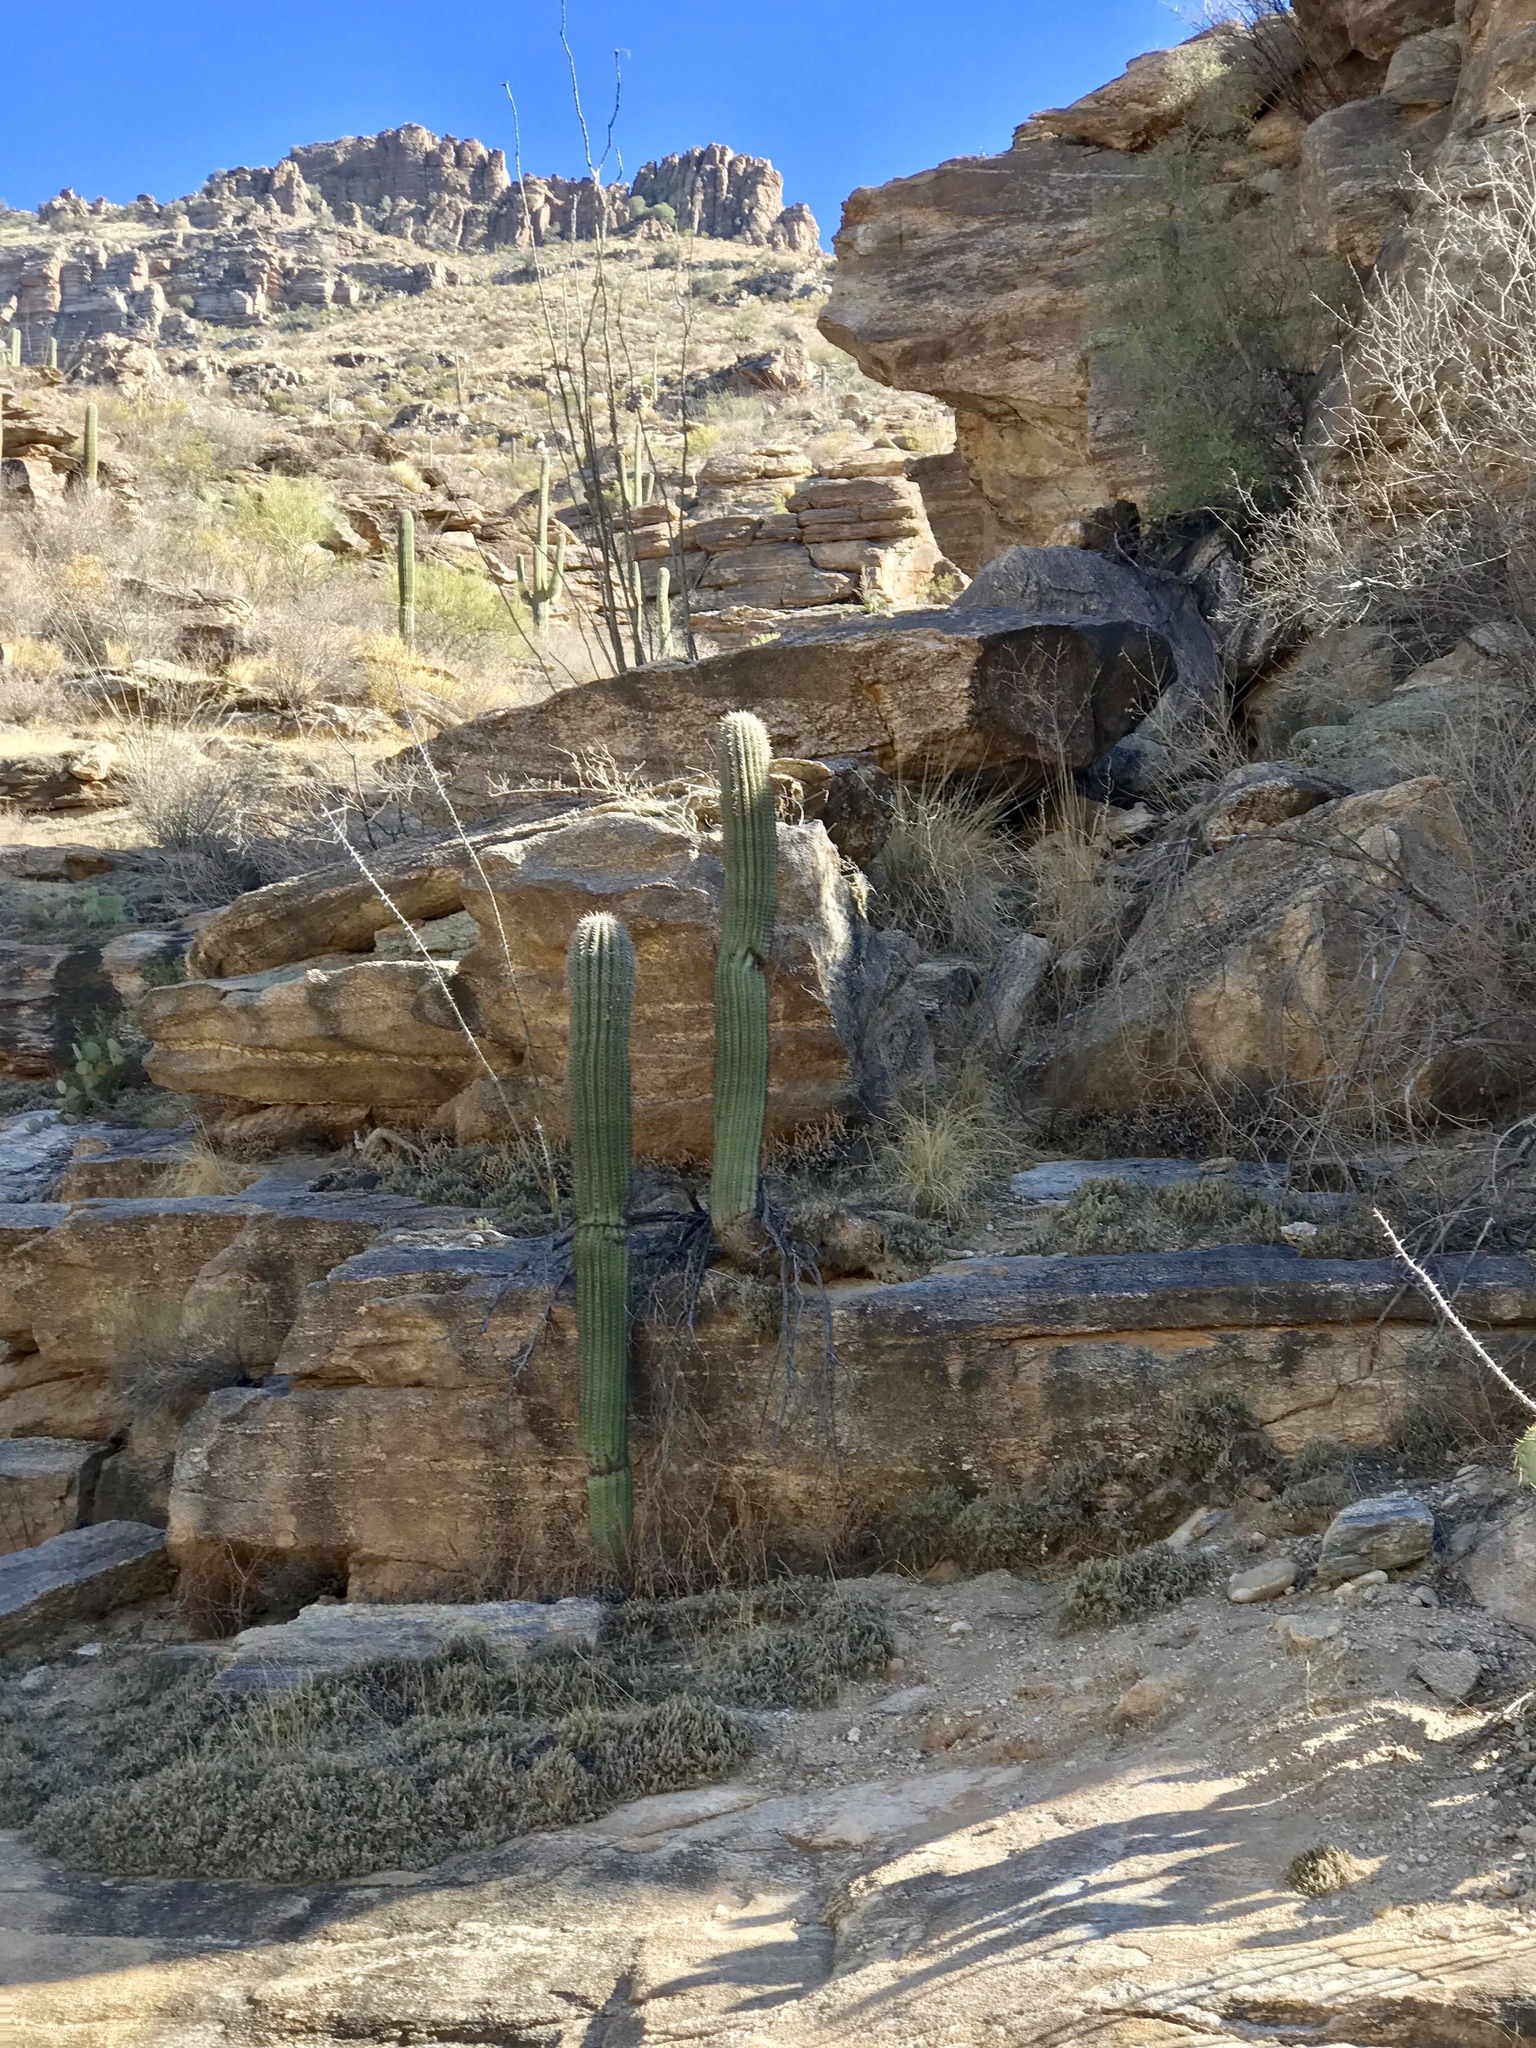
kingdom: Plantae
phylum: Tracheophyta
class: Magnoliopsida
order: Caryophyllales
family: Cactaceae
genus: Carnegiea
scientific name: Carnegiea gigantea
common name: Saguaro
